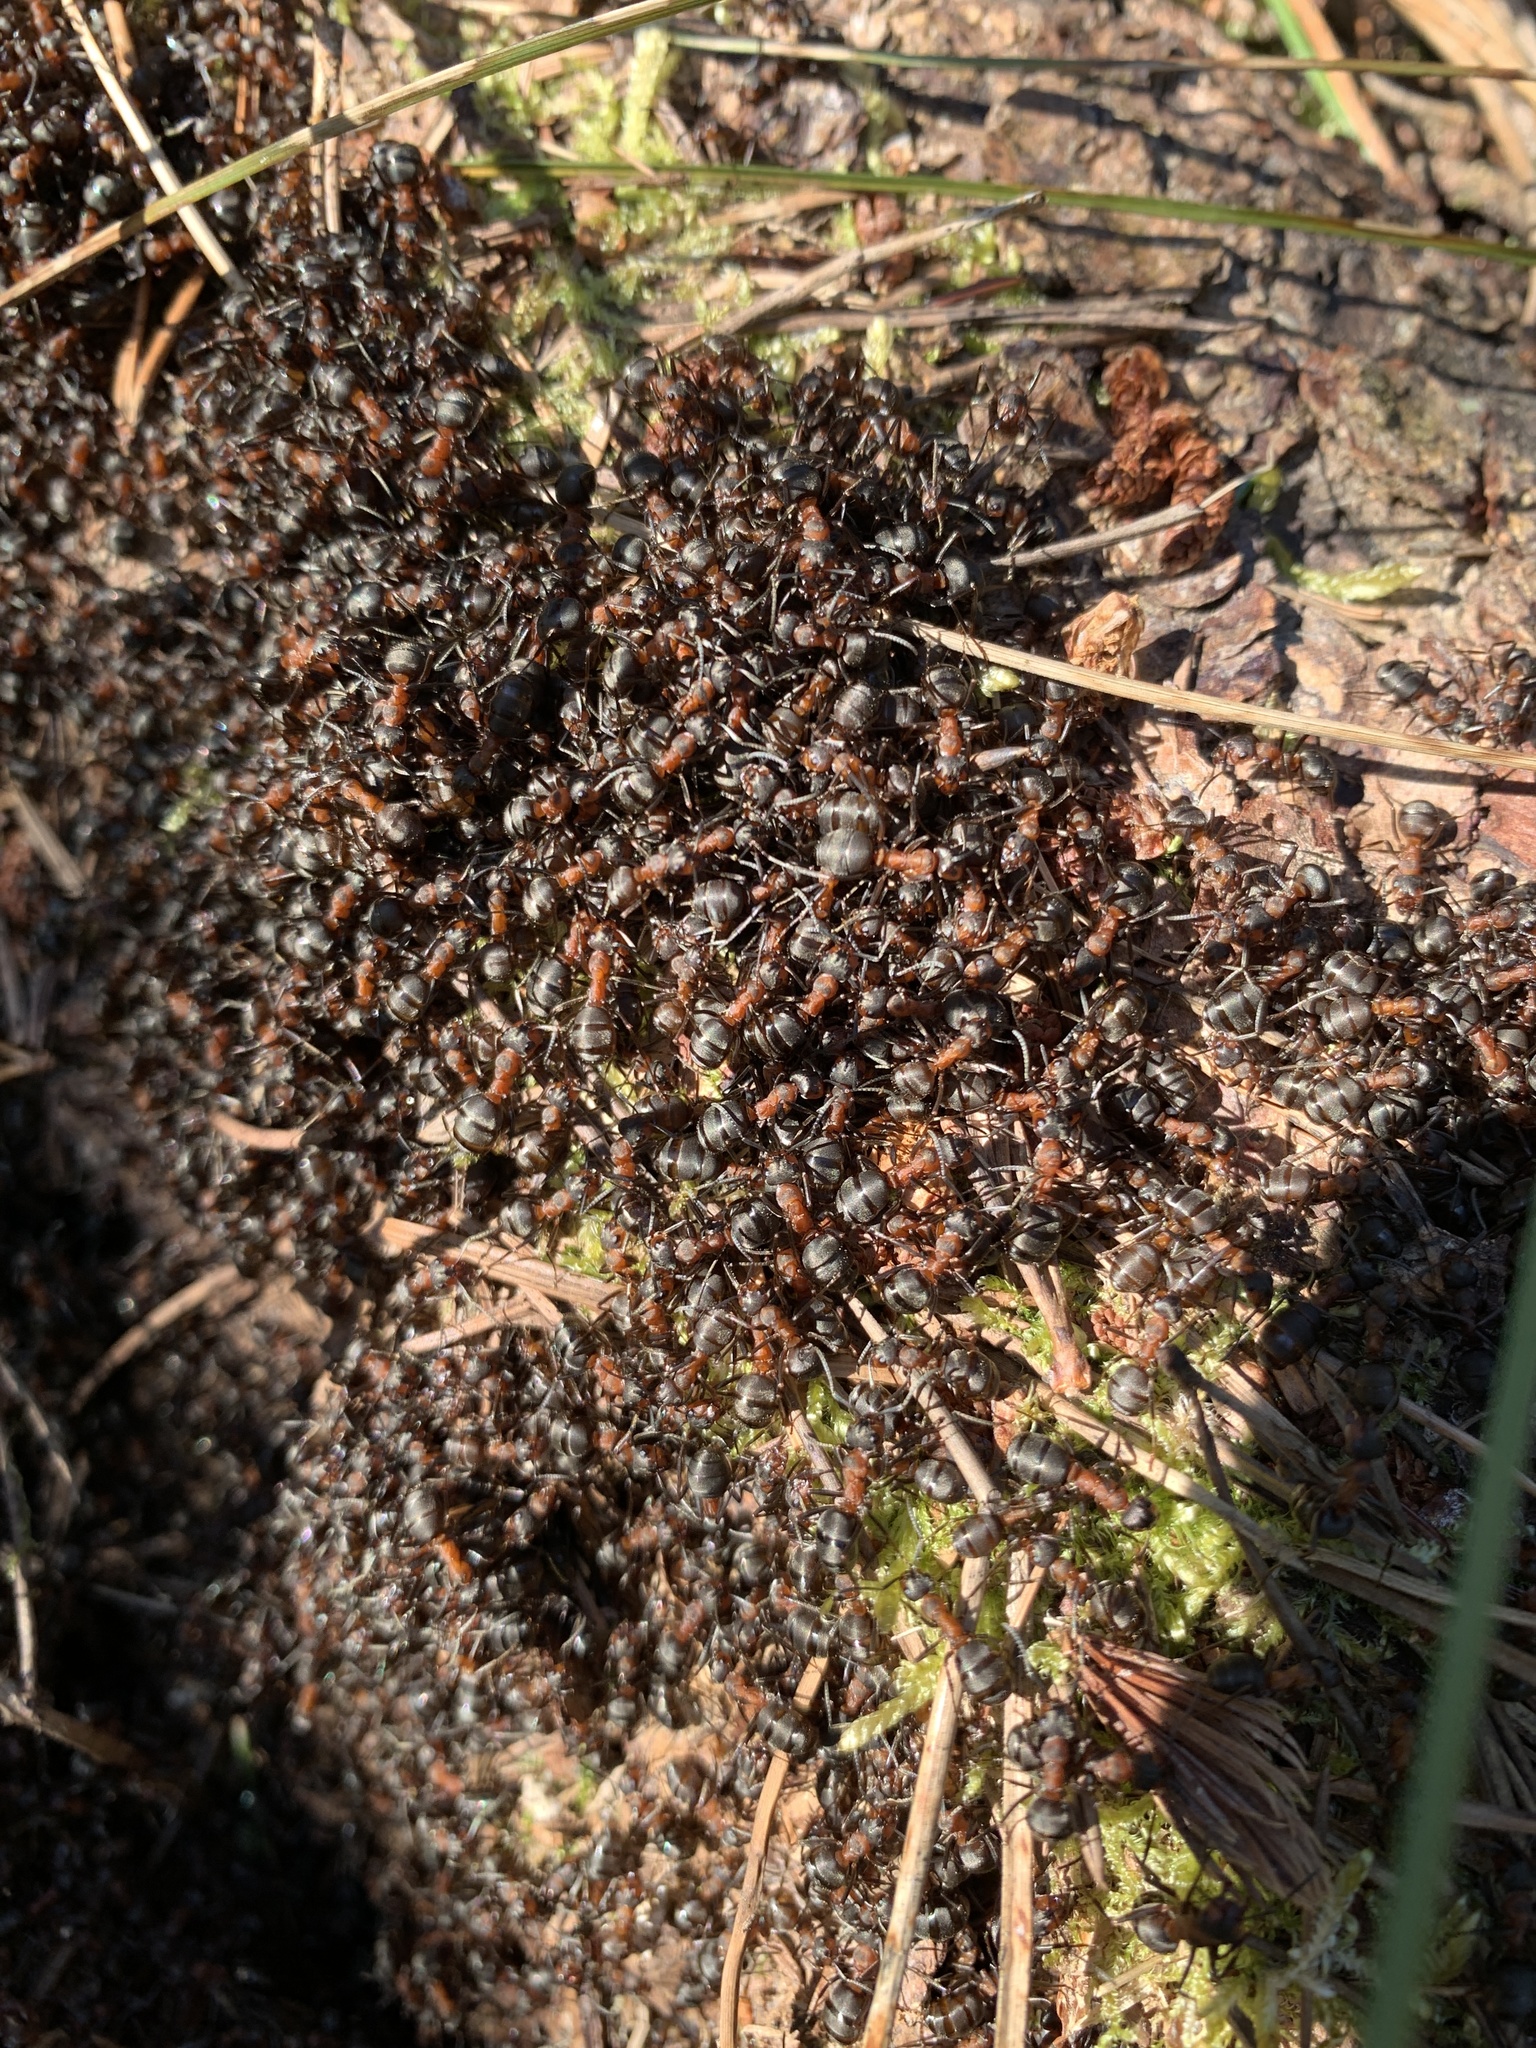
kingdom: Animalia
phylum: Arthropoda
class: Insecta
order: Hymenoptera
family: Formicidae
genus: Formica
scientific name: Formica rufa
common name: Red wood ant
